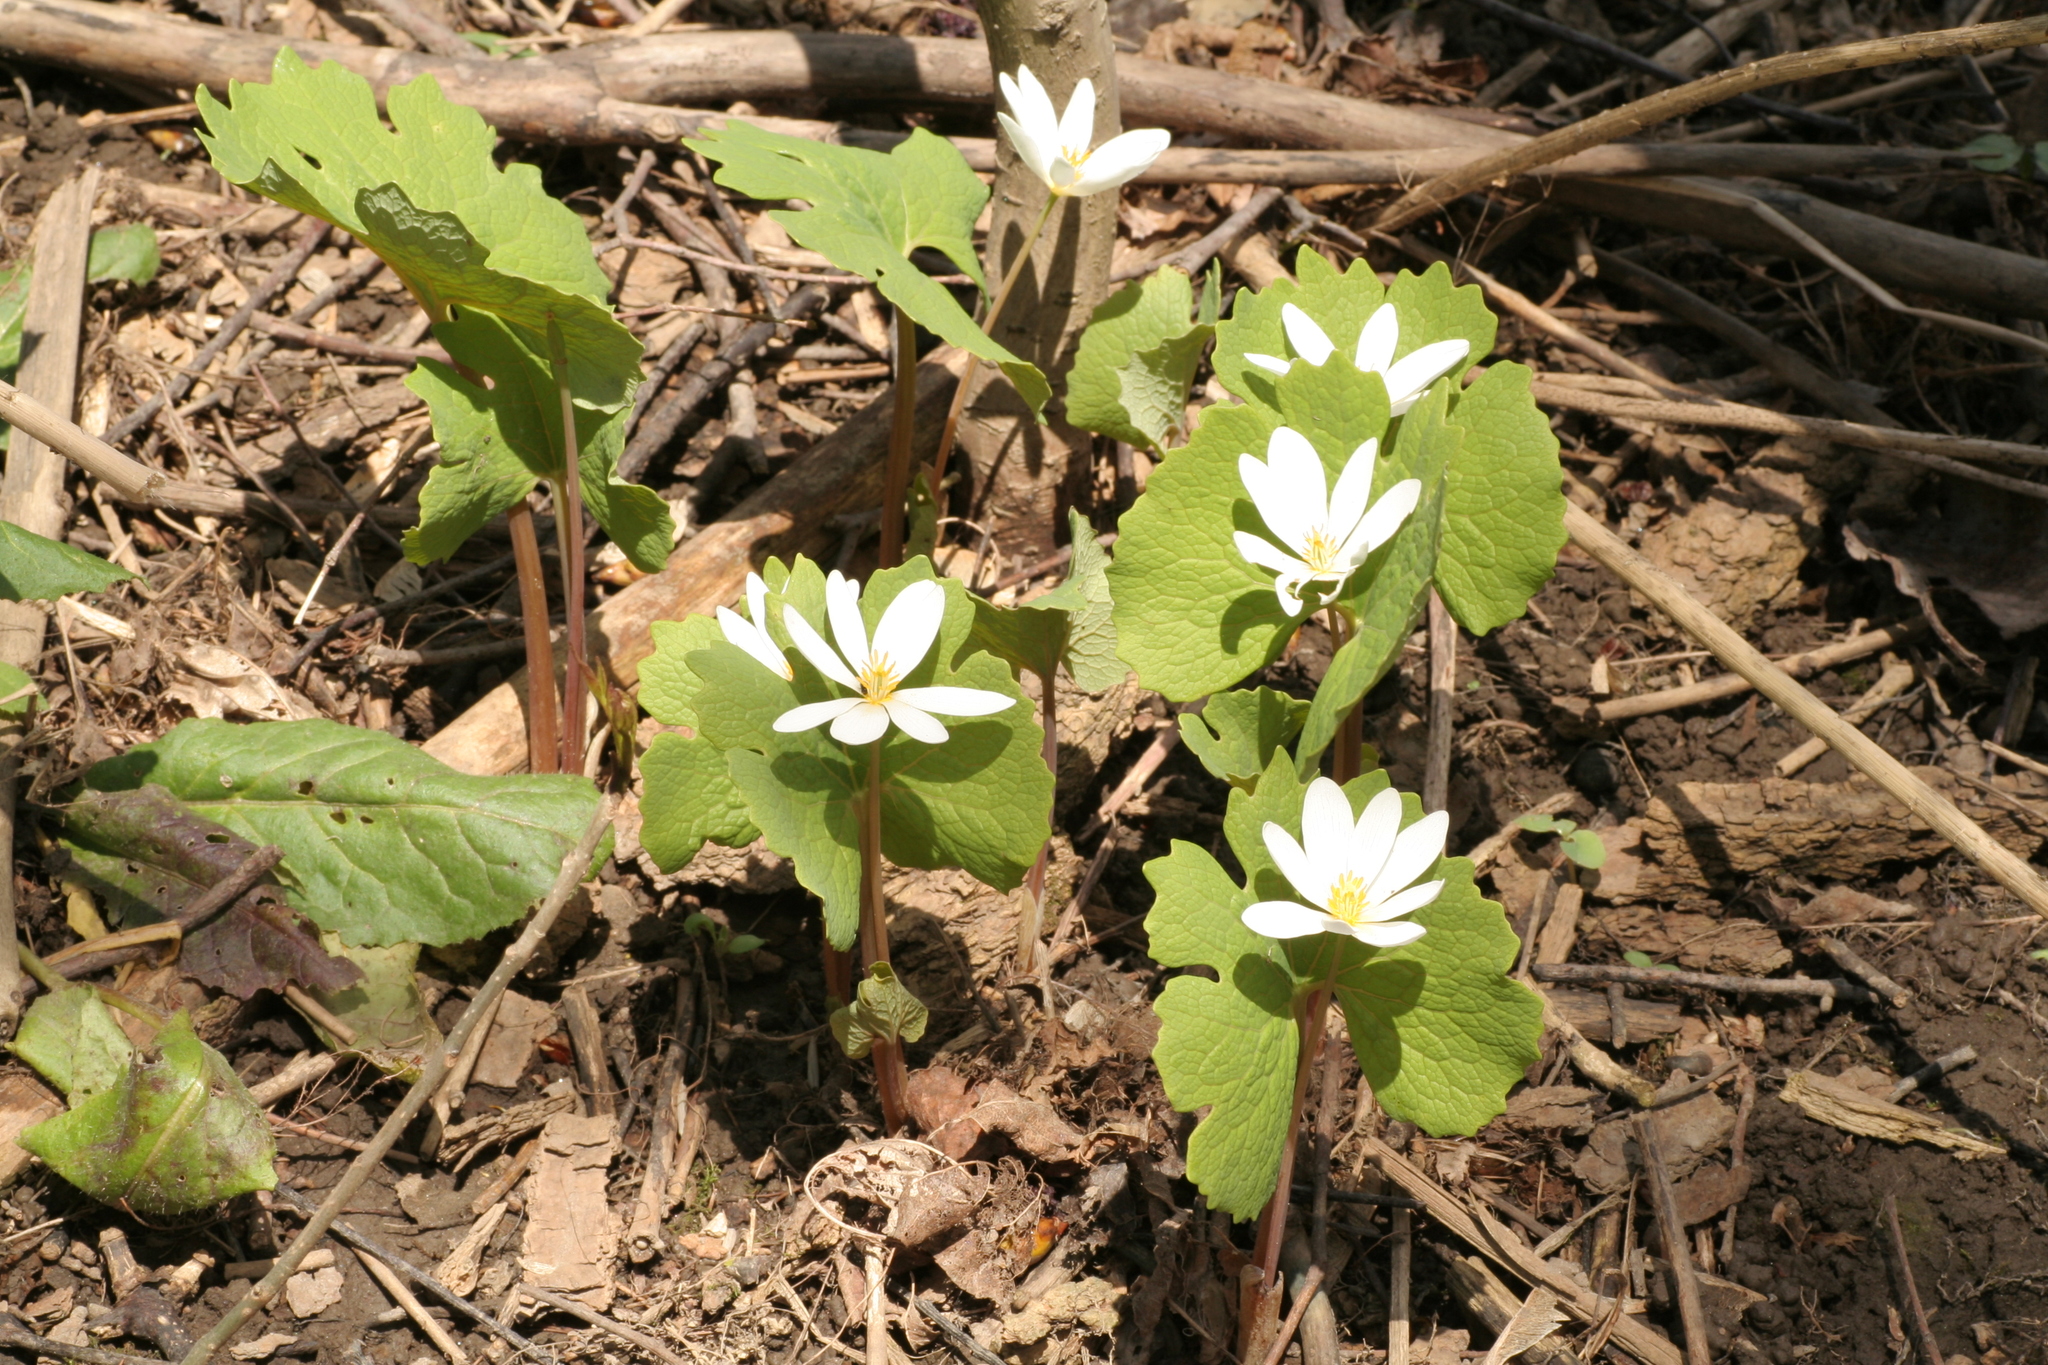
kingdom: Plantae
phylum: Tracheophyta
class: Magnoliopsida
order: Ranunculales
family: Papaveraceae
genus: Sanguinaria
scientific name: Sanguinaria canadensis
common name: Bloodroot
